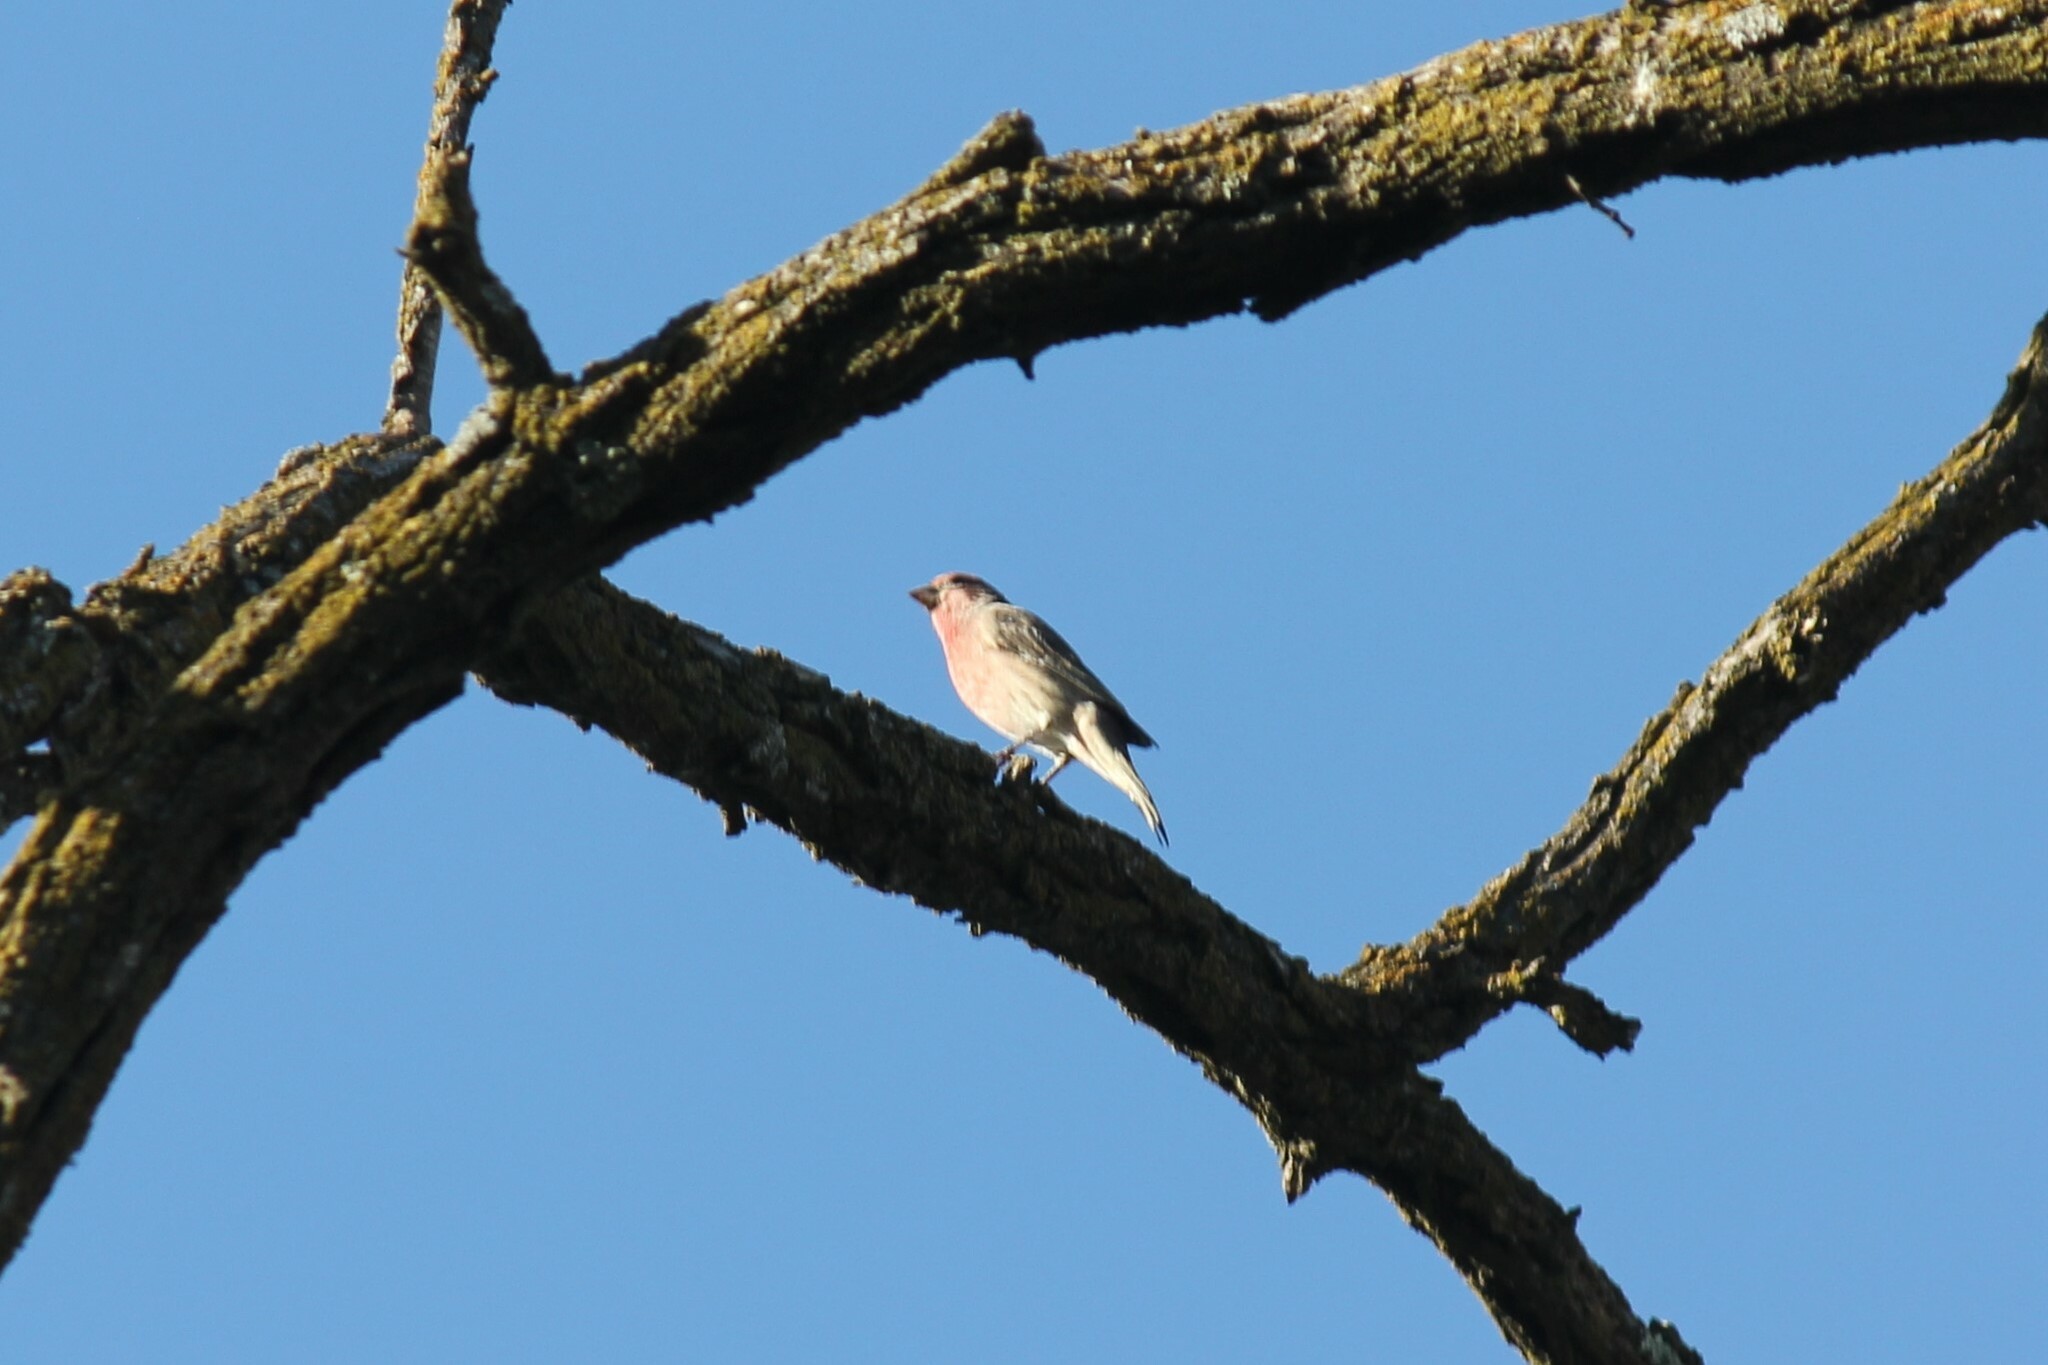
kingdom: Animalia
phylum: Chordata
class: Aves
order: Passeriformes
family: Fringillidae
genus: Haemorhous
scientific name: Haemorhous mexicanus
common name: House finch
